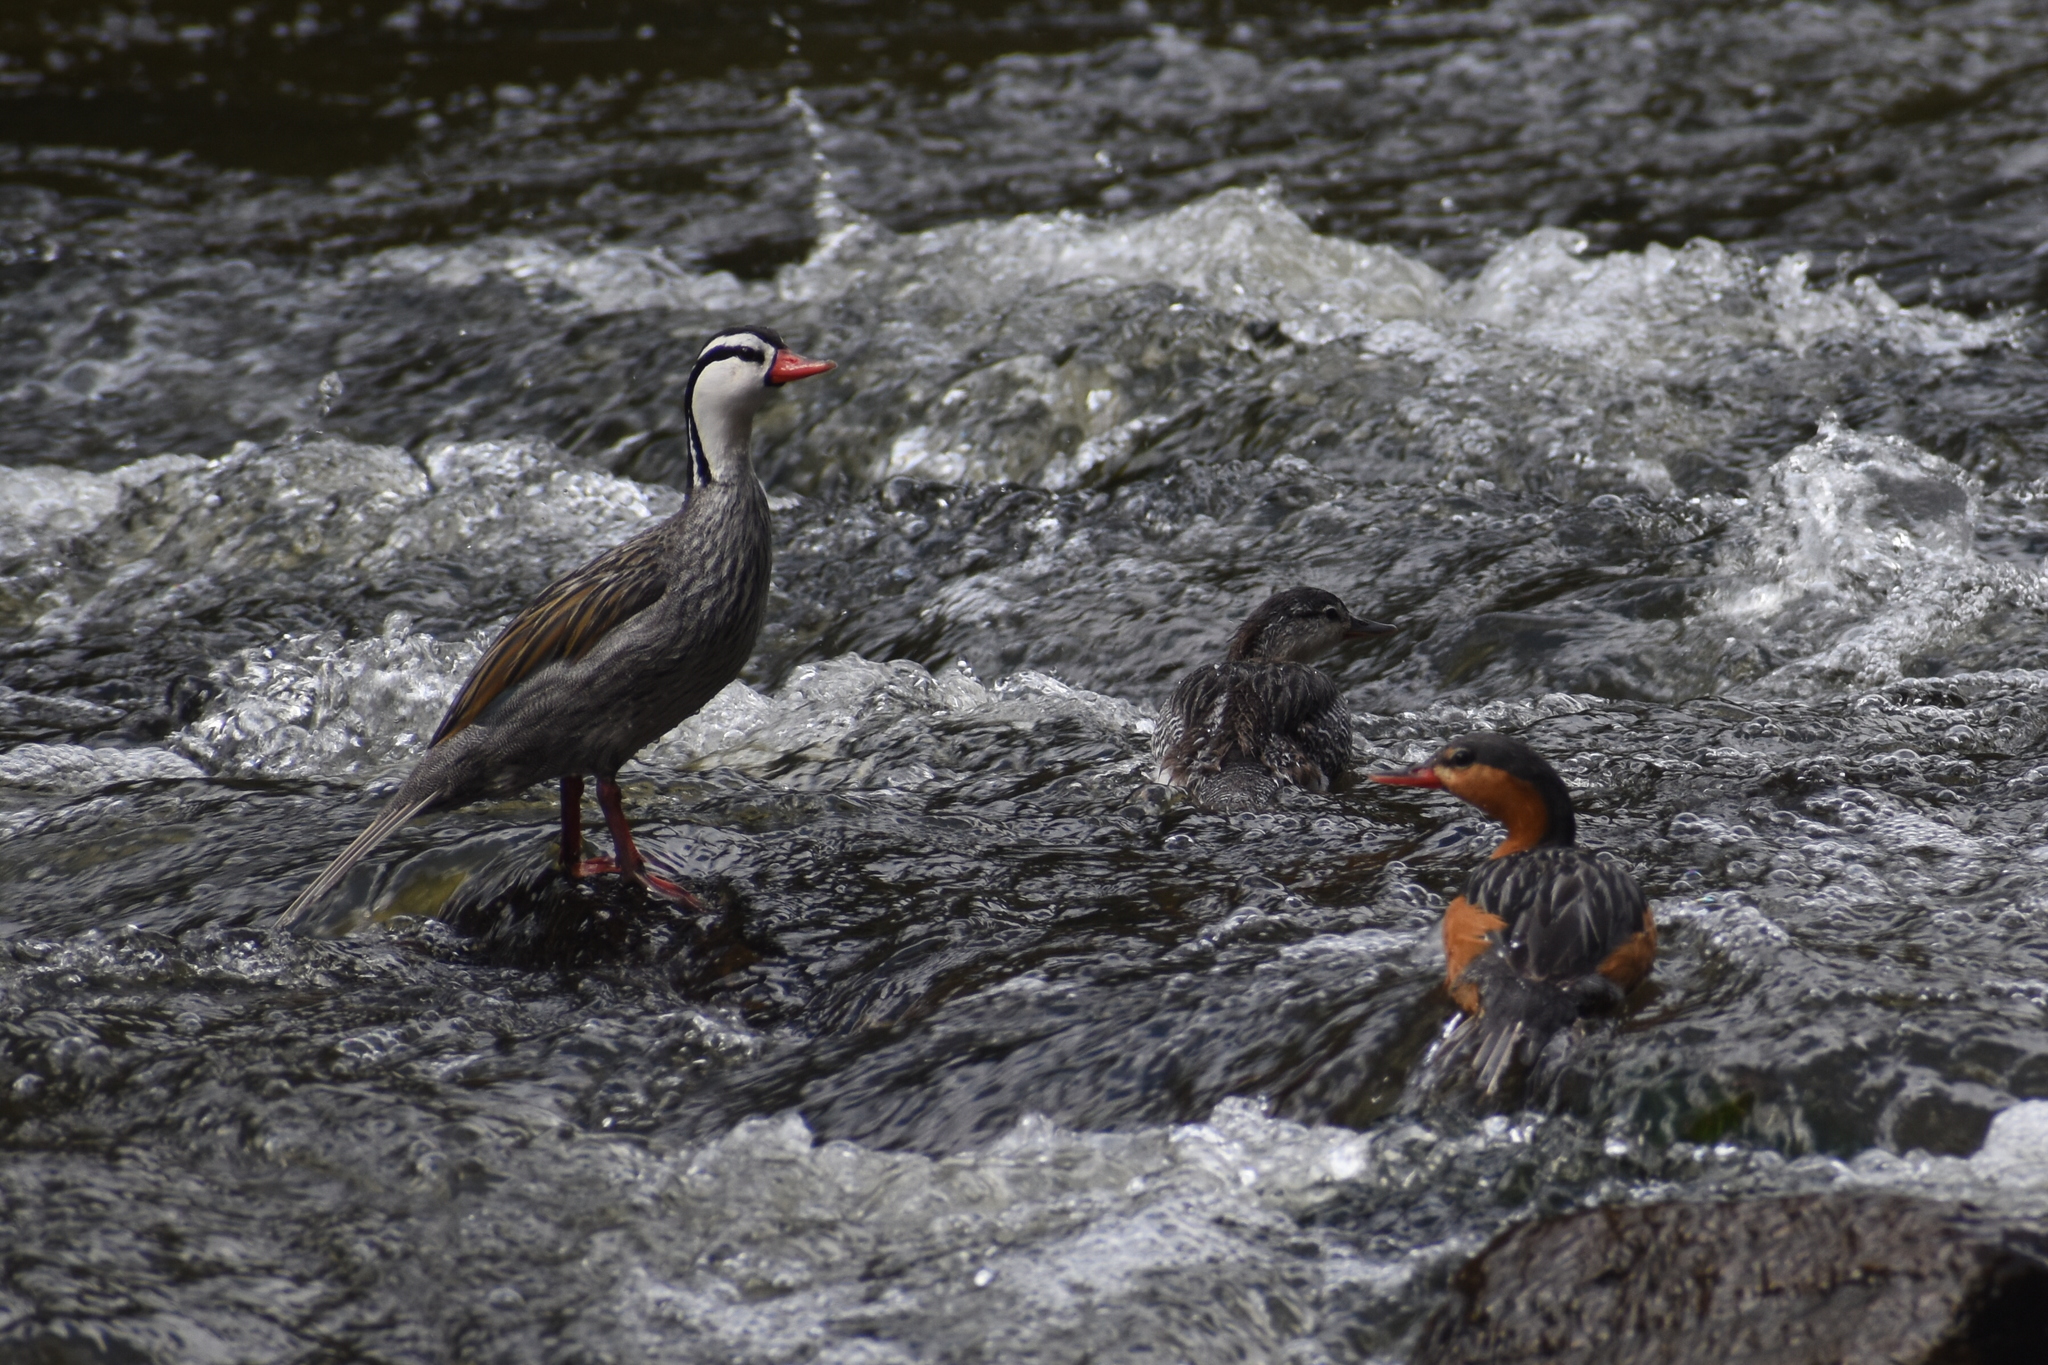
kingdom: Animalia
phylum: Chordata
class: Aves
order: Anseriformes
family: Anatidae
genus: Merganetta
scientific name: Merganetta armata
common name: Torrent duck
